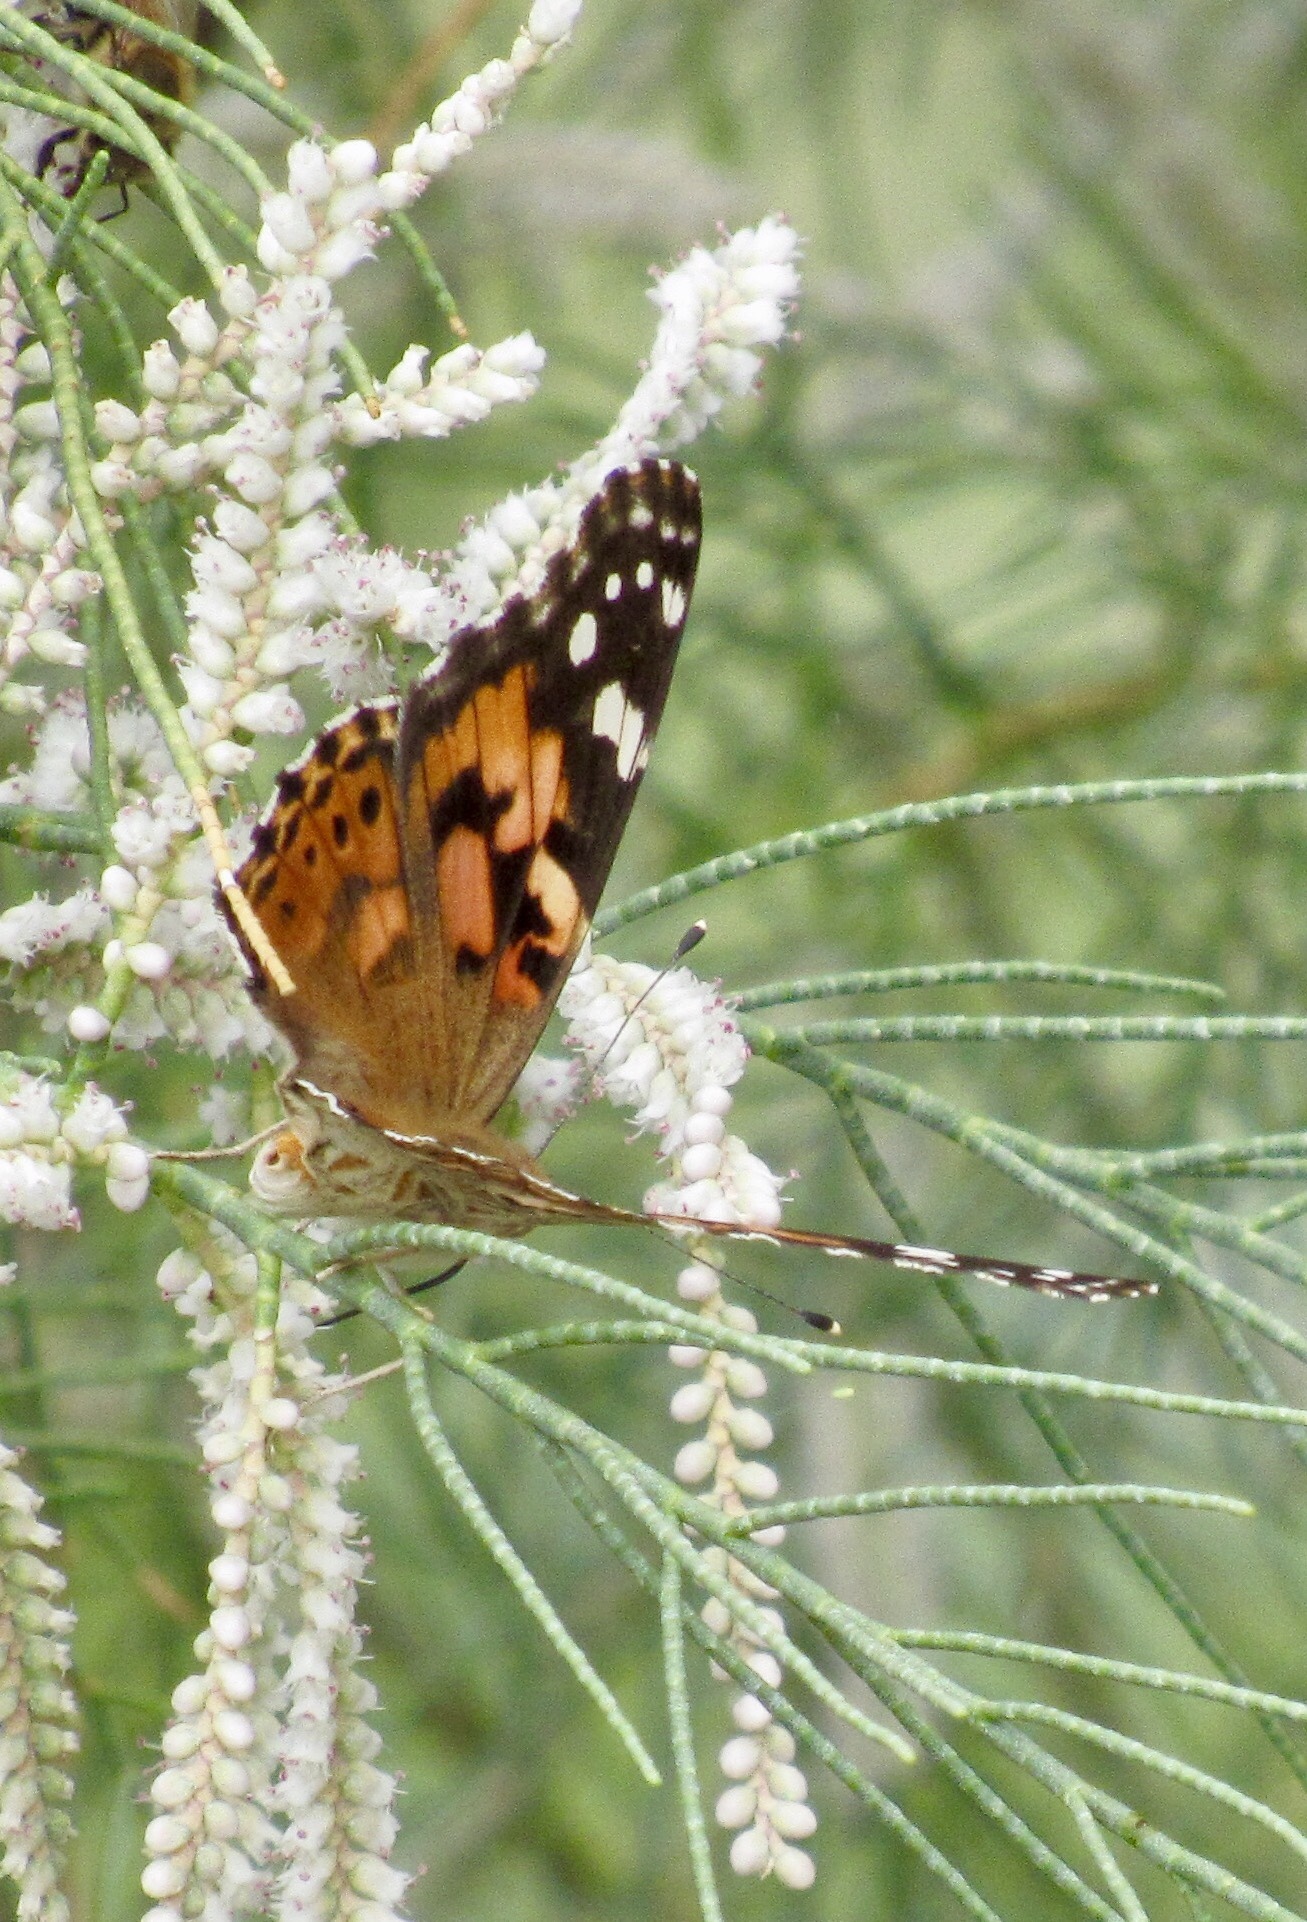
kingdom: Animalia
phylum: Arthropoda
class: Insecta
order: Lepidoptera
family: Nymphalidae
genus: Vanessa
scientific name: Vanessa cardui
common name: Painted lady
